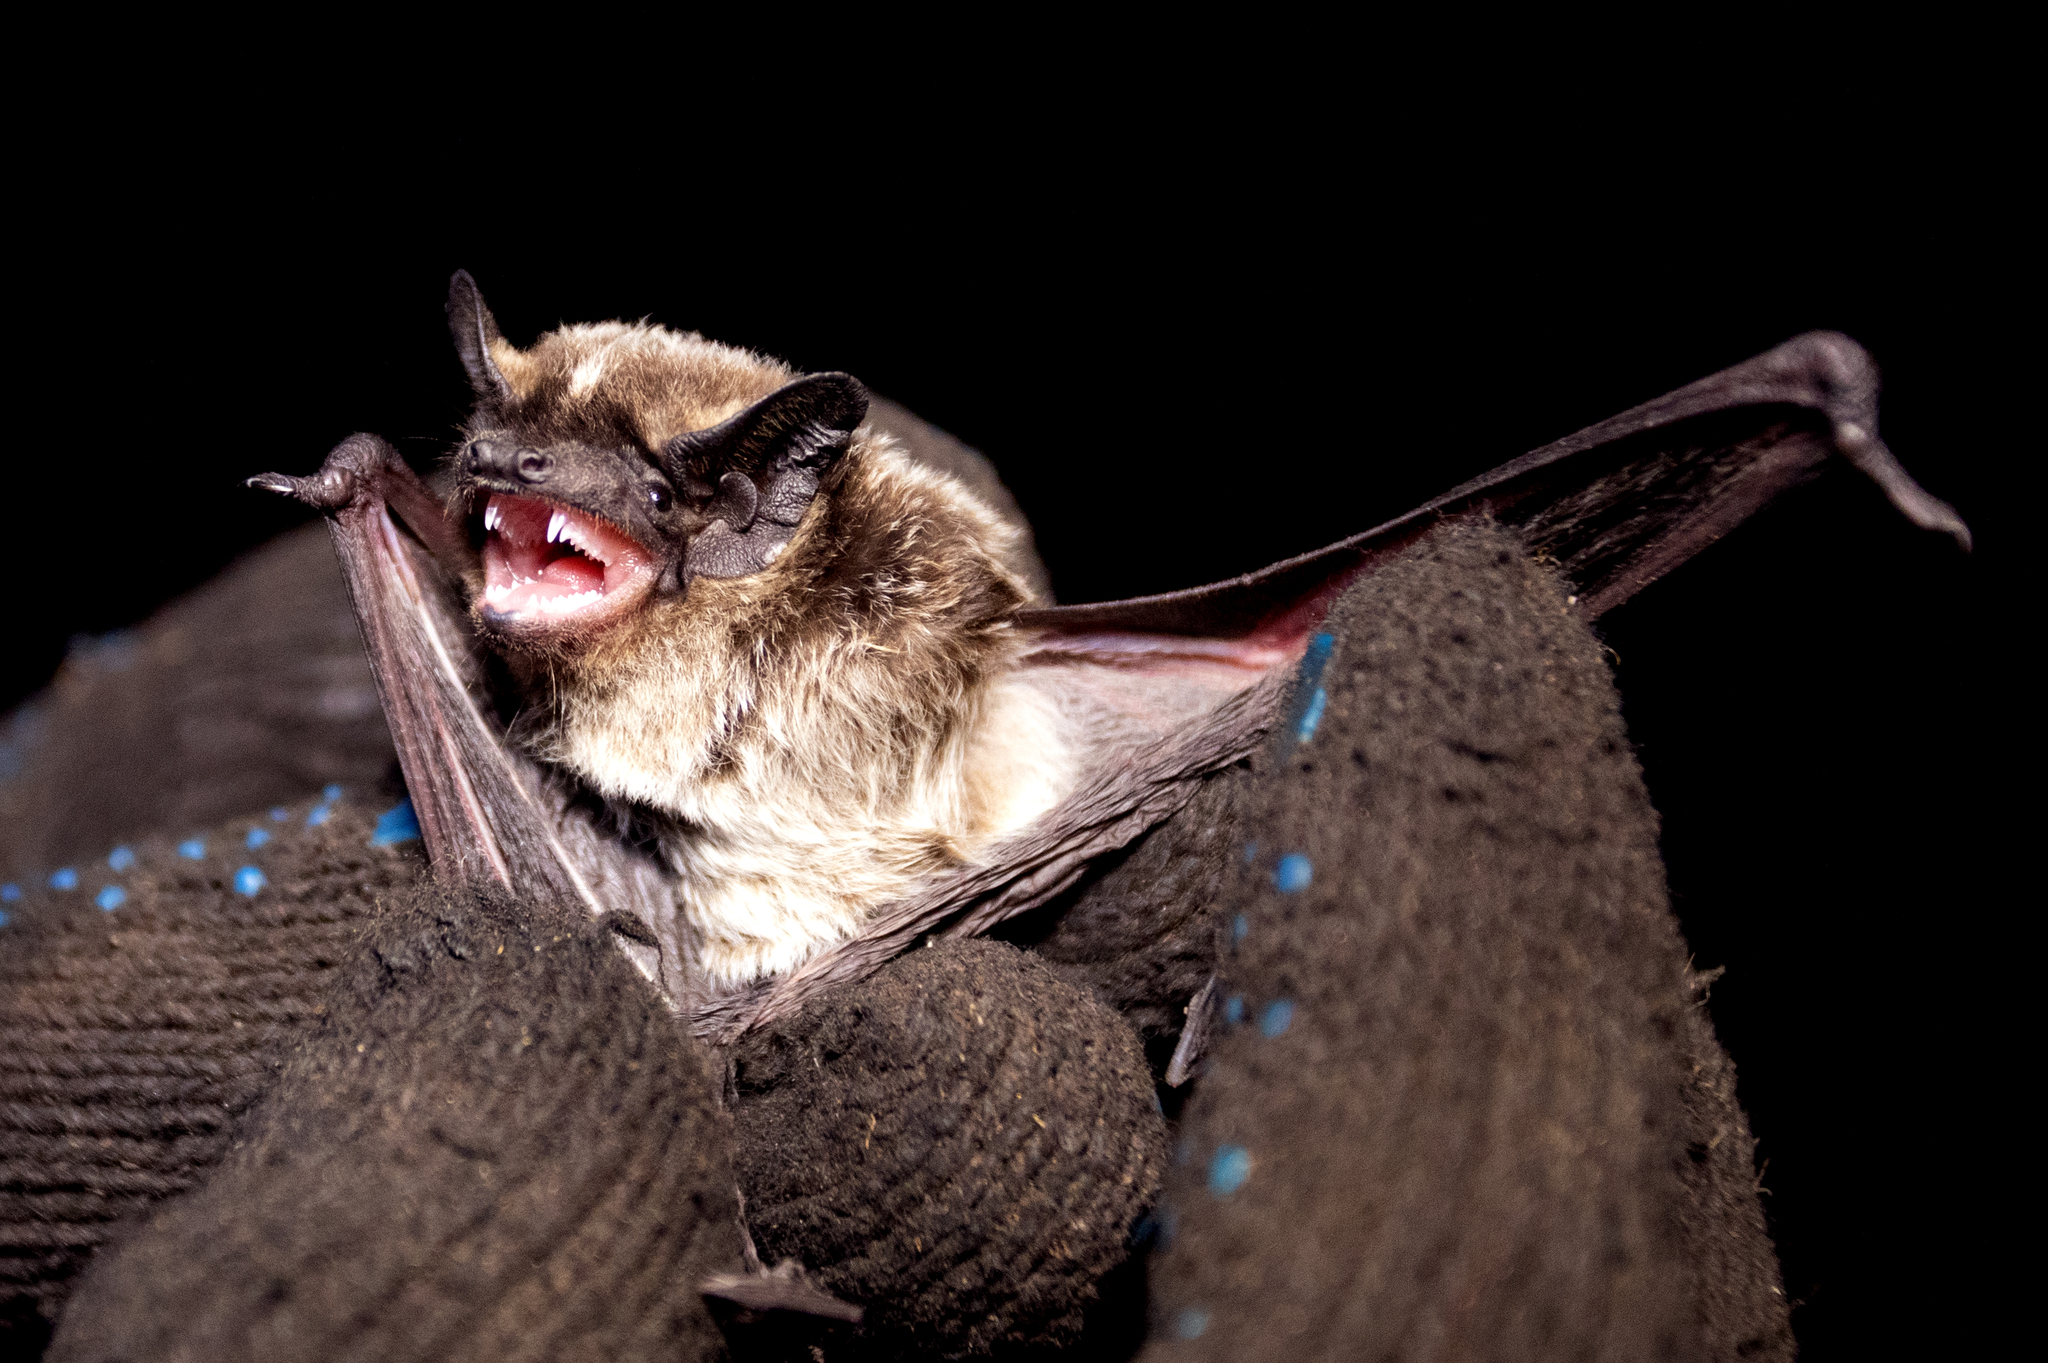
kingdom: Animalia
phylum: Chordata
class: Mammalia
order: Chiroptera
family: Vespertilionidae
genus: Vespertilio
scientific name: Vespertilio murinus
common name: Particolored bat
